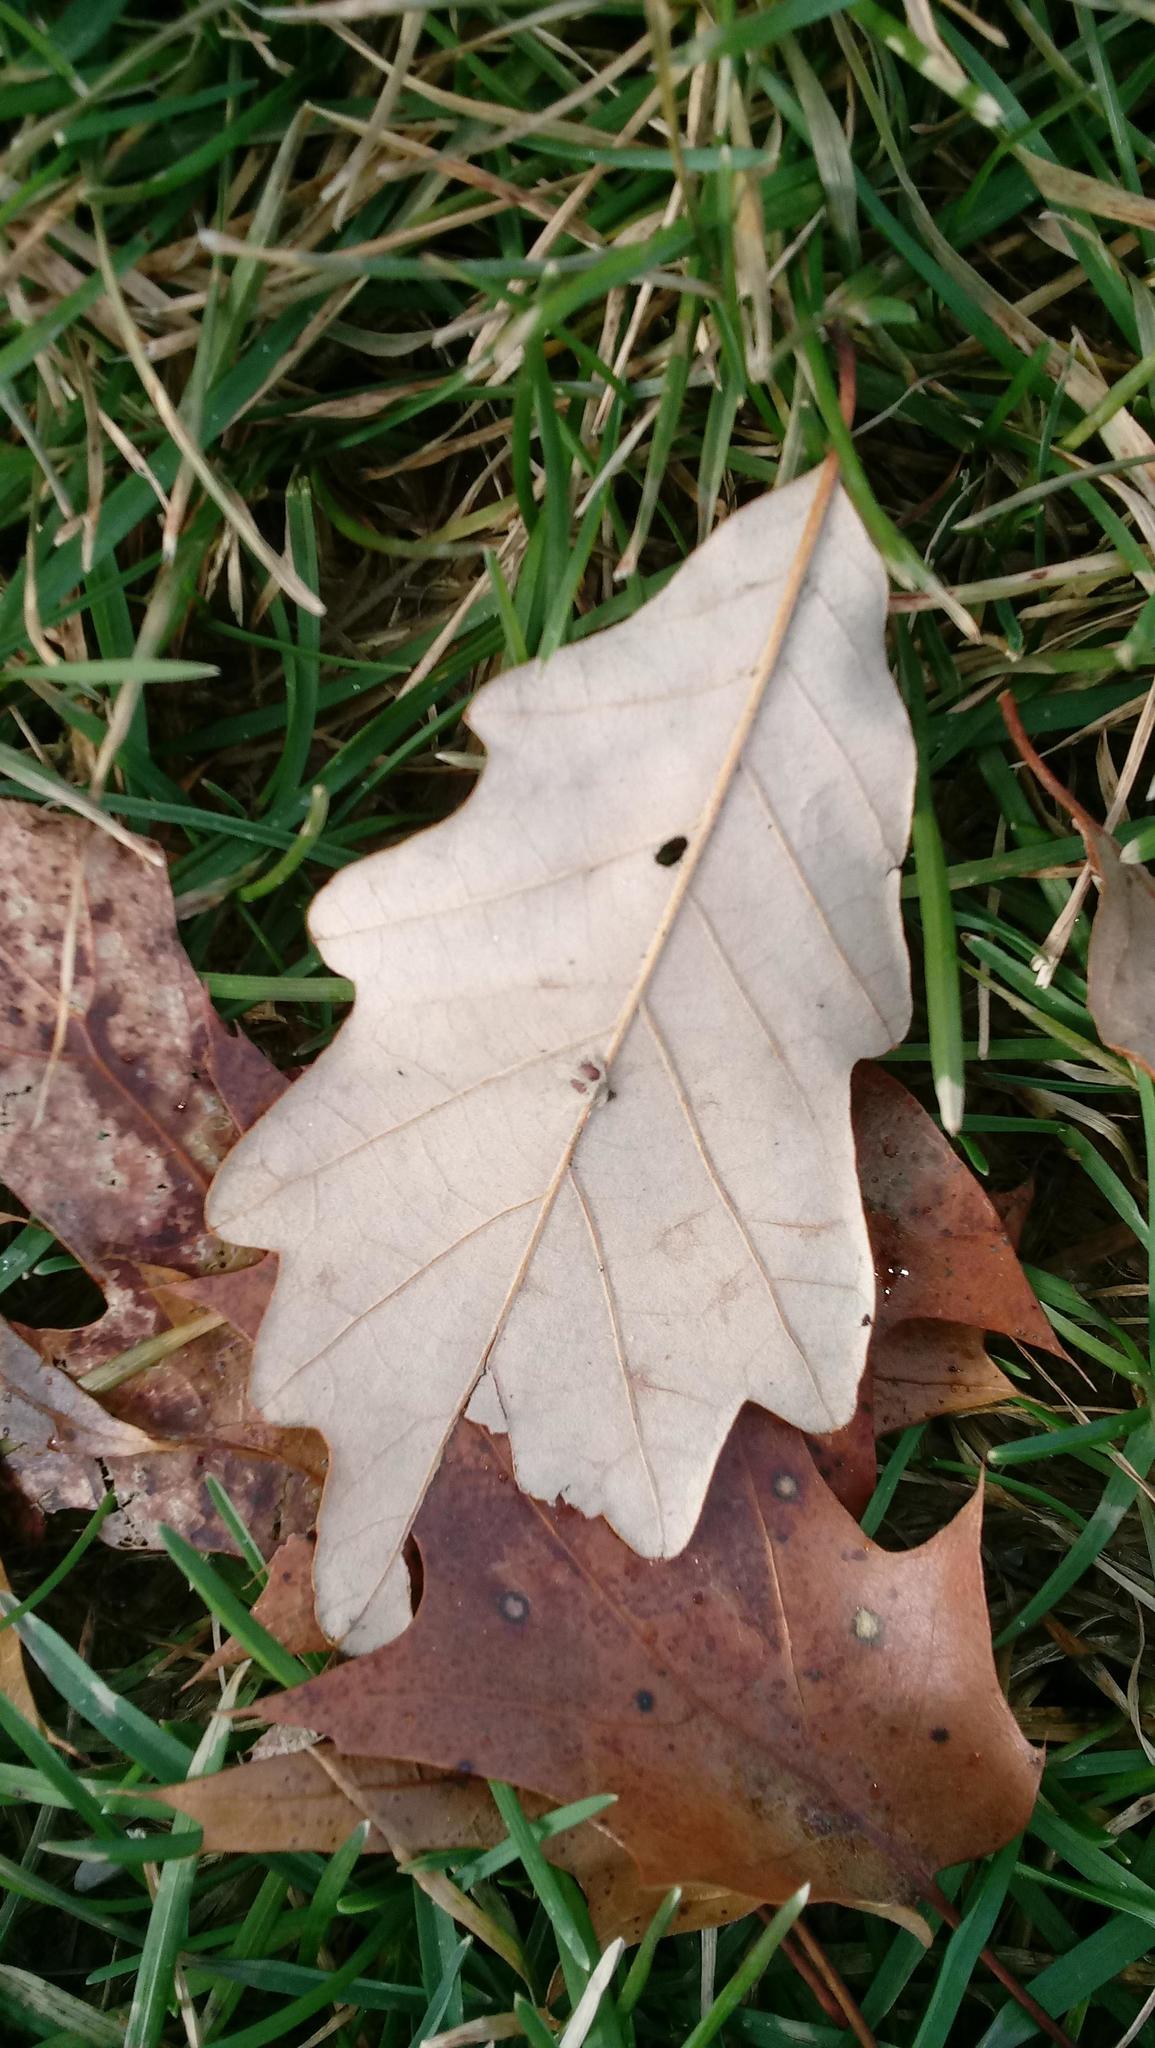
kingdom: Animalia
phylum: Arthropoda
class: Insecta
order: Hymenoptera
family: Cynipidae
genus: Andricus
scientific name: Andricus Druon ignotum
